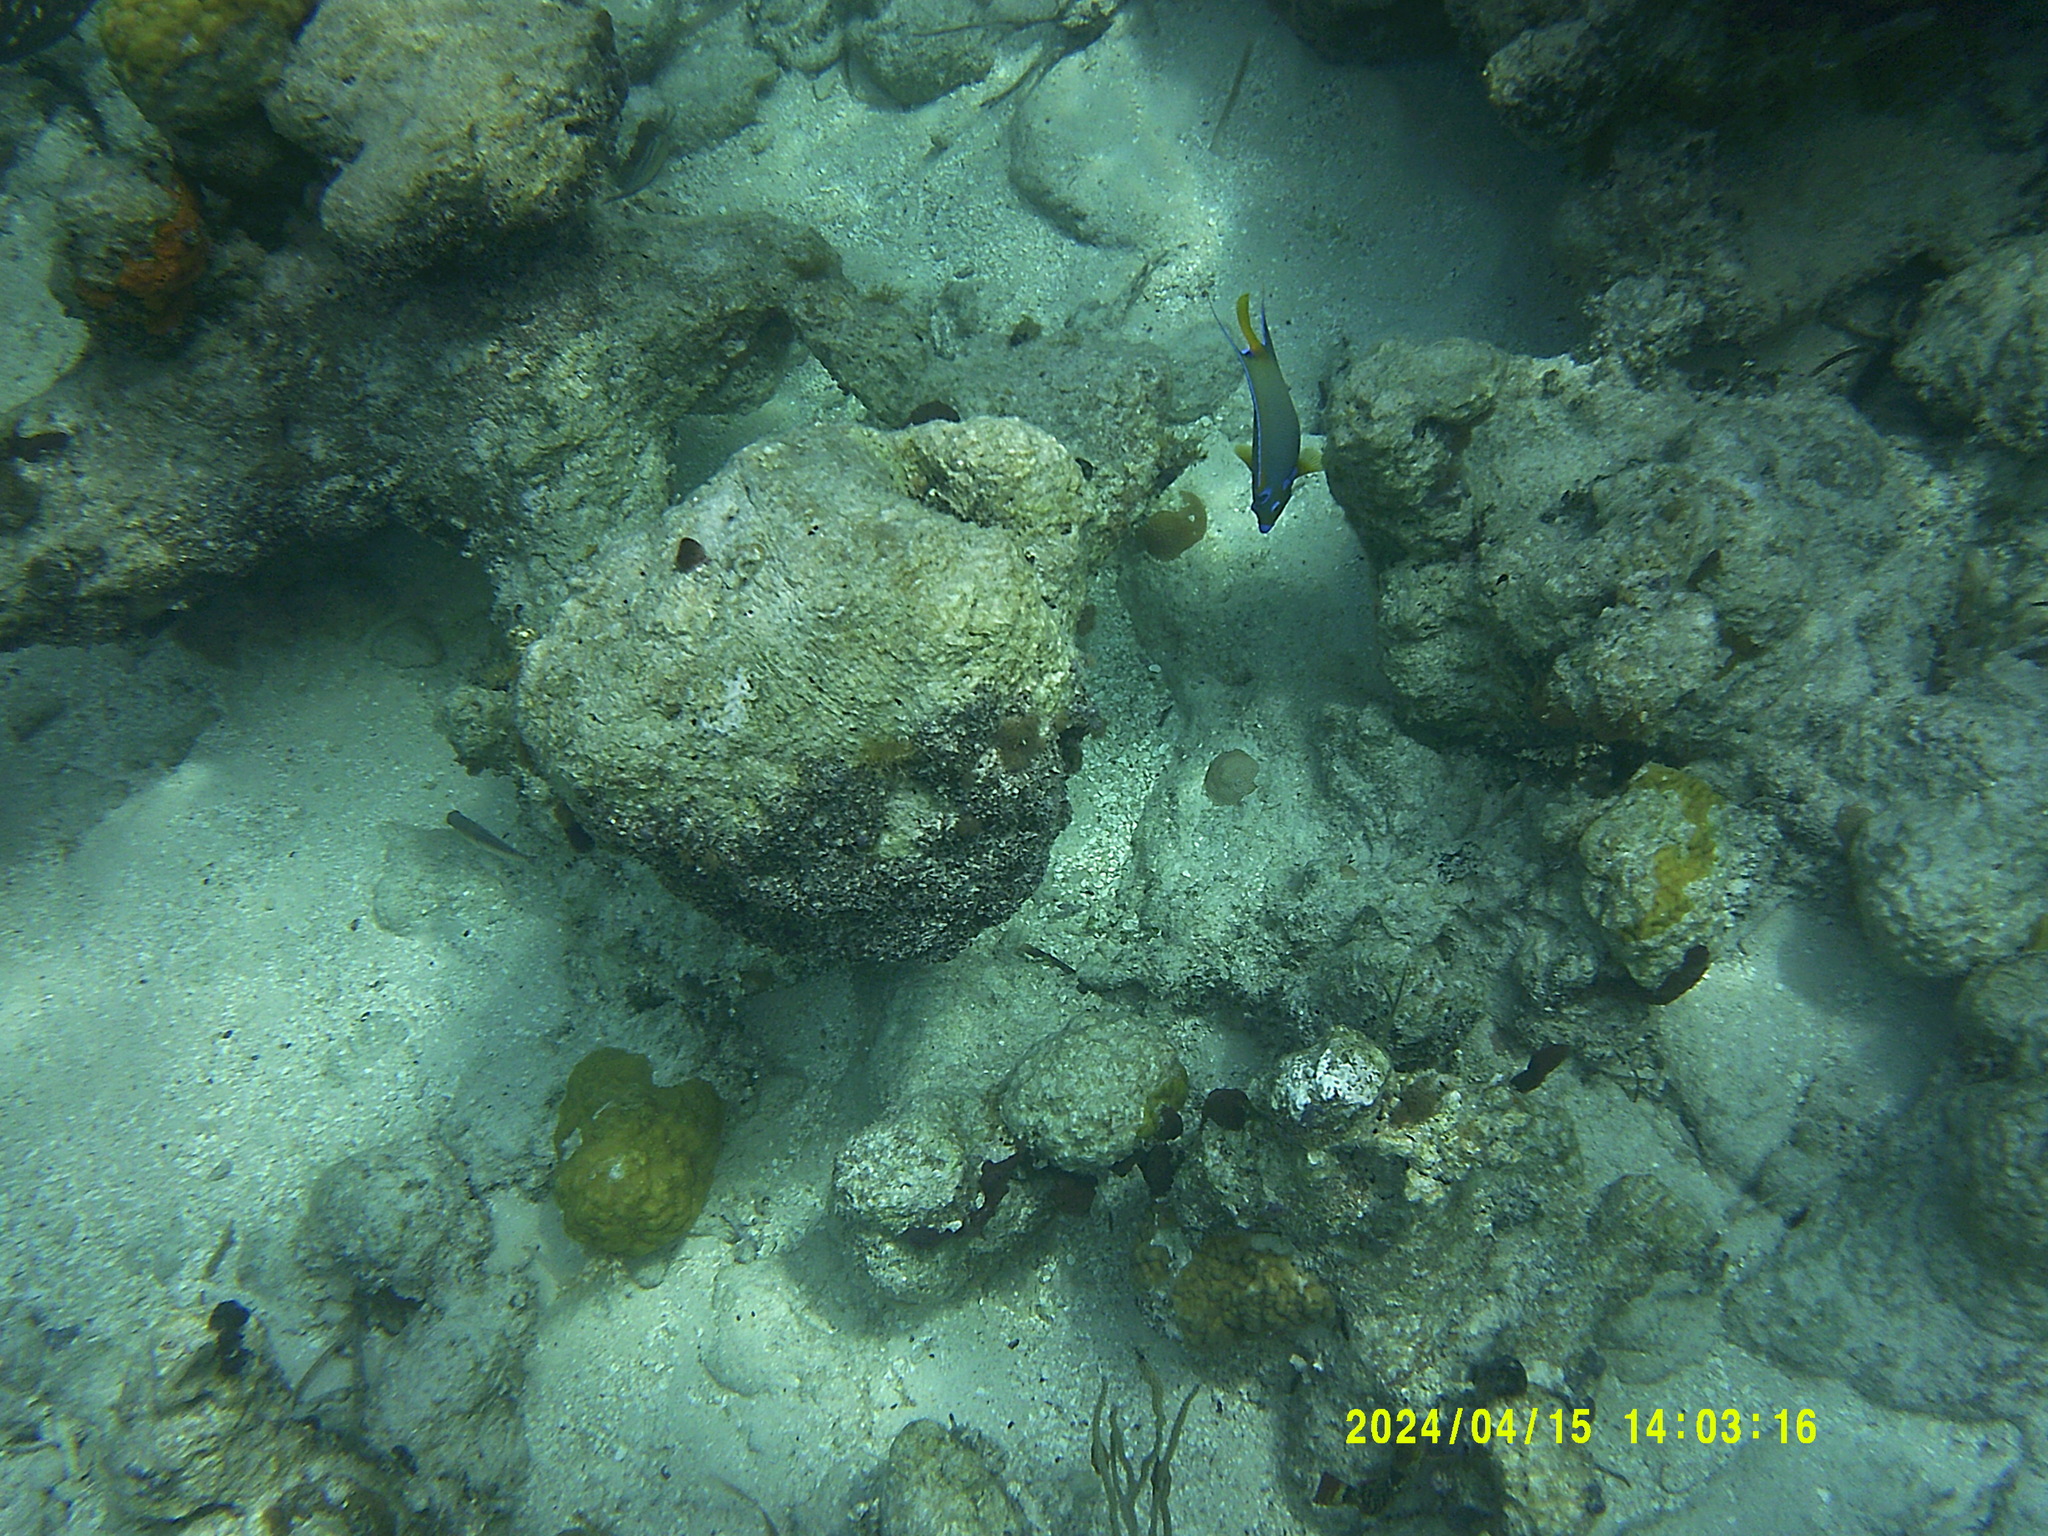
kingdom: Animalia
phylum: Chordata
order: Perciformes
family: Pomacanthidae
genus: Holacanthus
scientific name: Holacanthus ciliaris
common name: Queen angelfish
